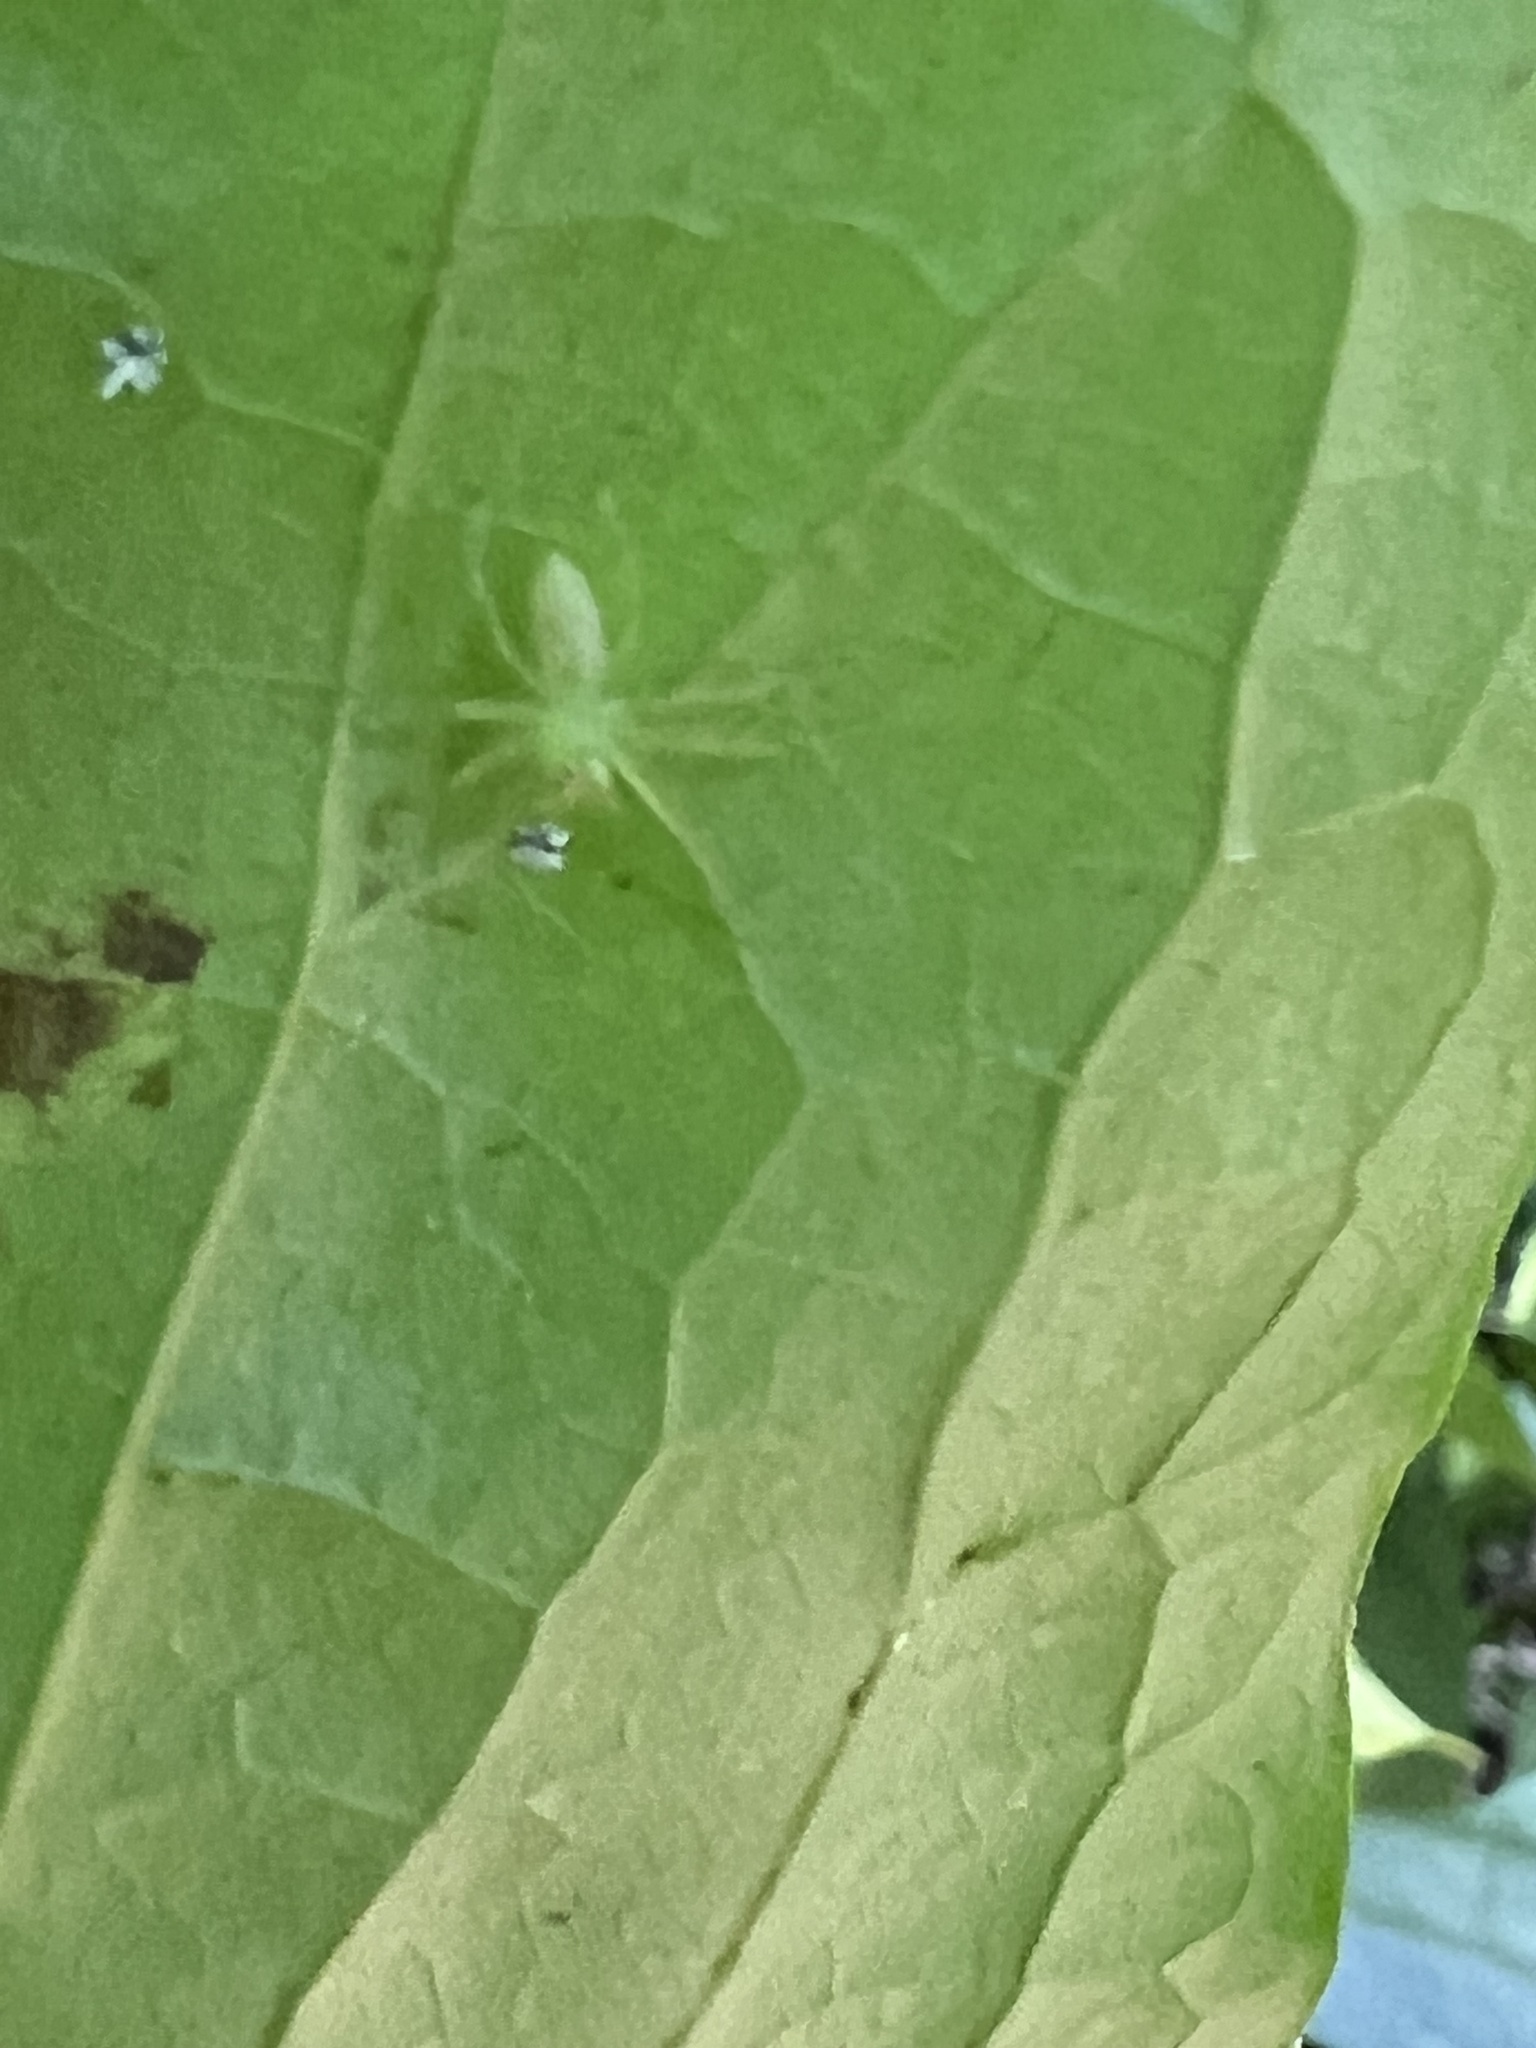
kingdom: Animalia
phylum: Arthropoda
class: Arachnida
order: Araneae
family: Salticidae
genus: Lyssomanes
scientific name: Lyssomanes viridis
